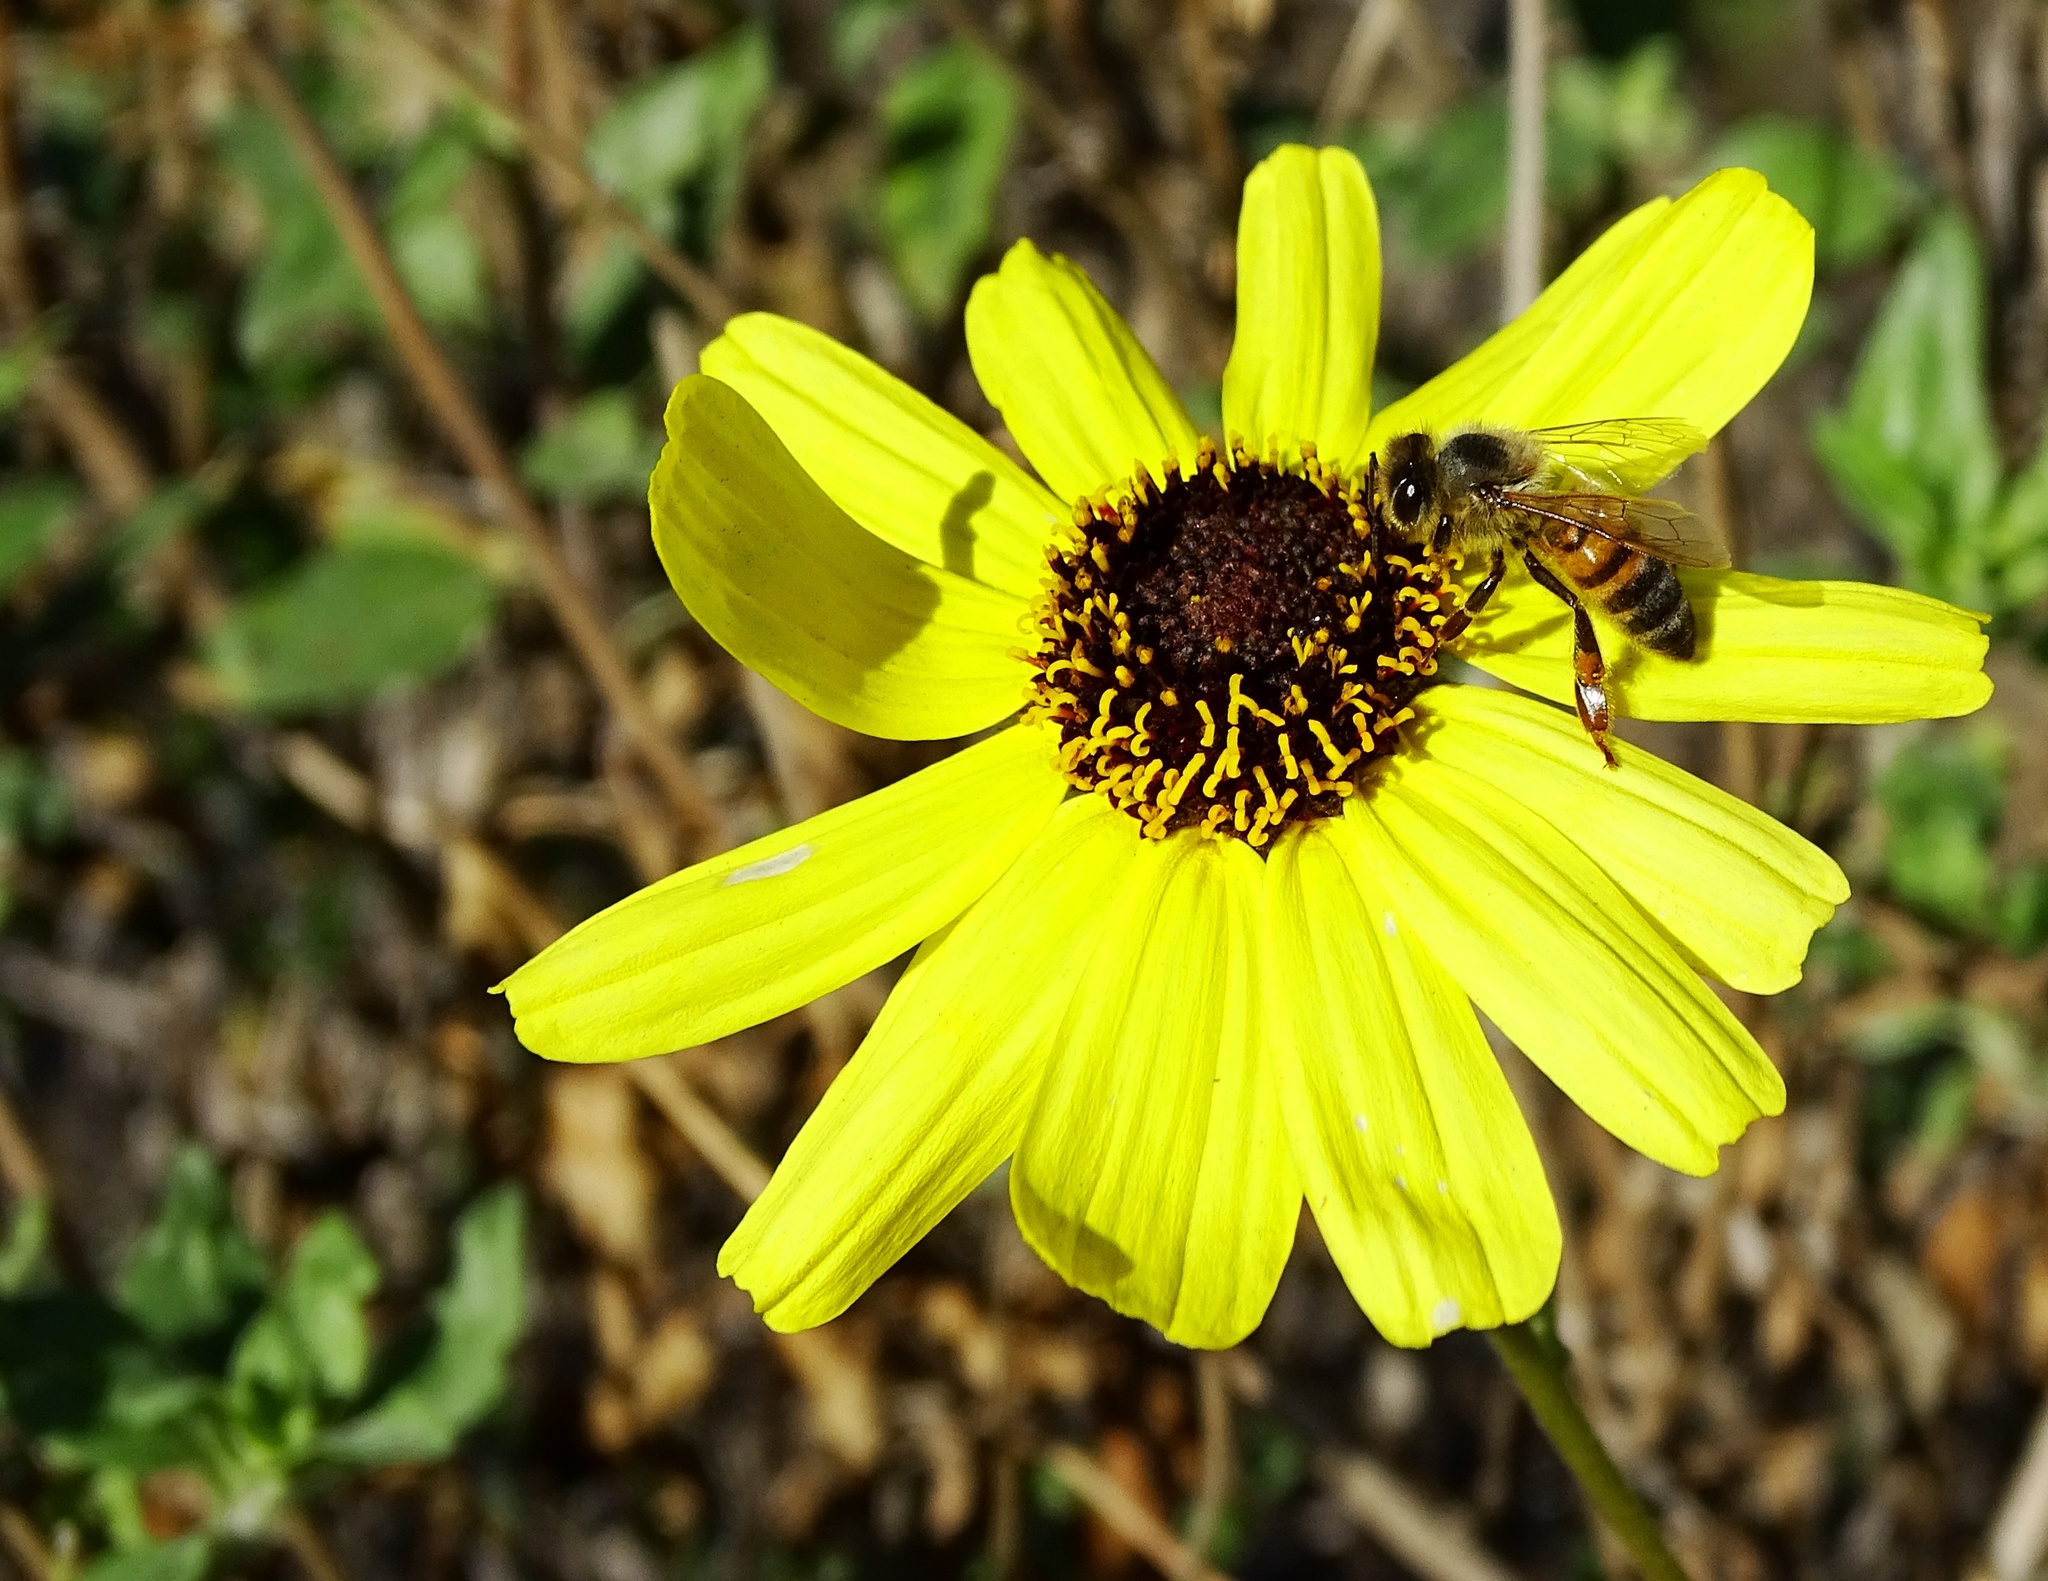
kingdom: Plantae
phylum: Tracheophyta
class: Magnoliopsida
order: Asterales
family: Asteraceae
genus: Encelia
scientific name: Encelia californica
